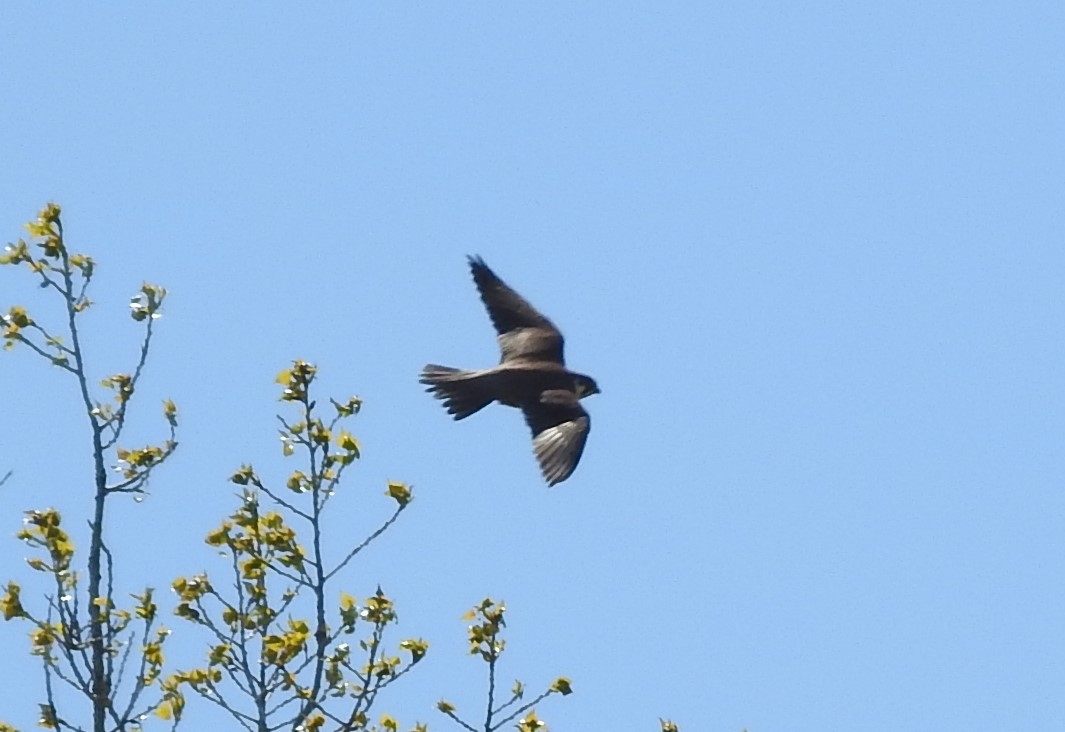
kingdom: Animalia
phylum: Chordata
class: Aves
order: Falconiformes
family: Falconidae
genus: Falco
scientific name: Falco subbuteo
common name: Eurasian hobby
